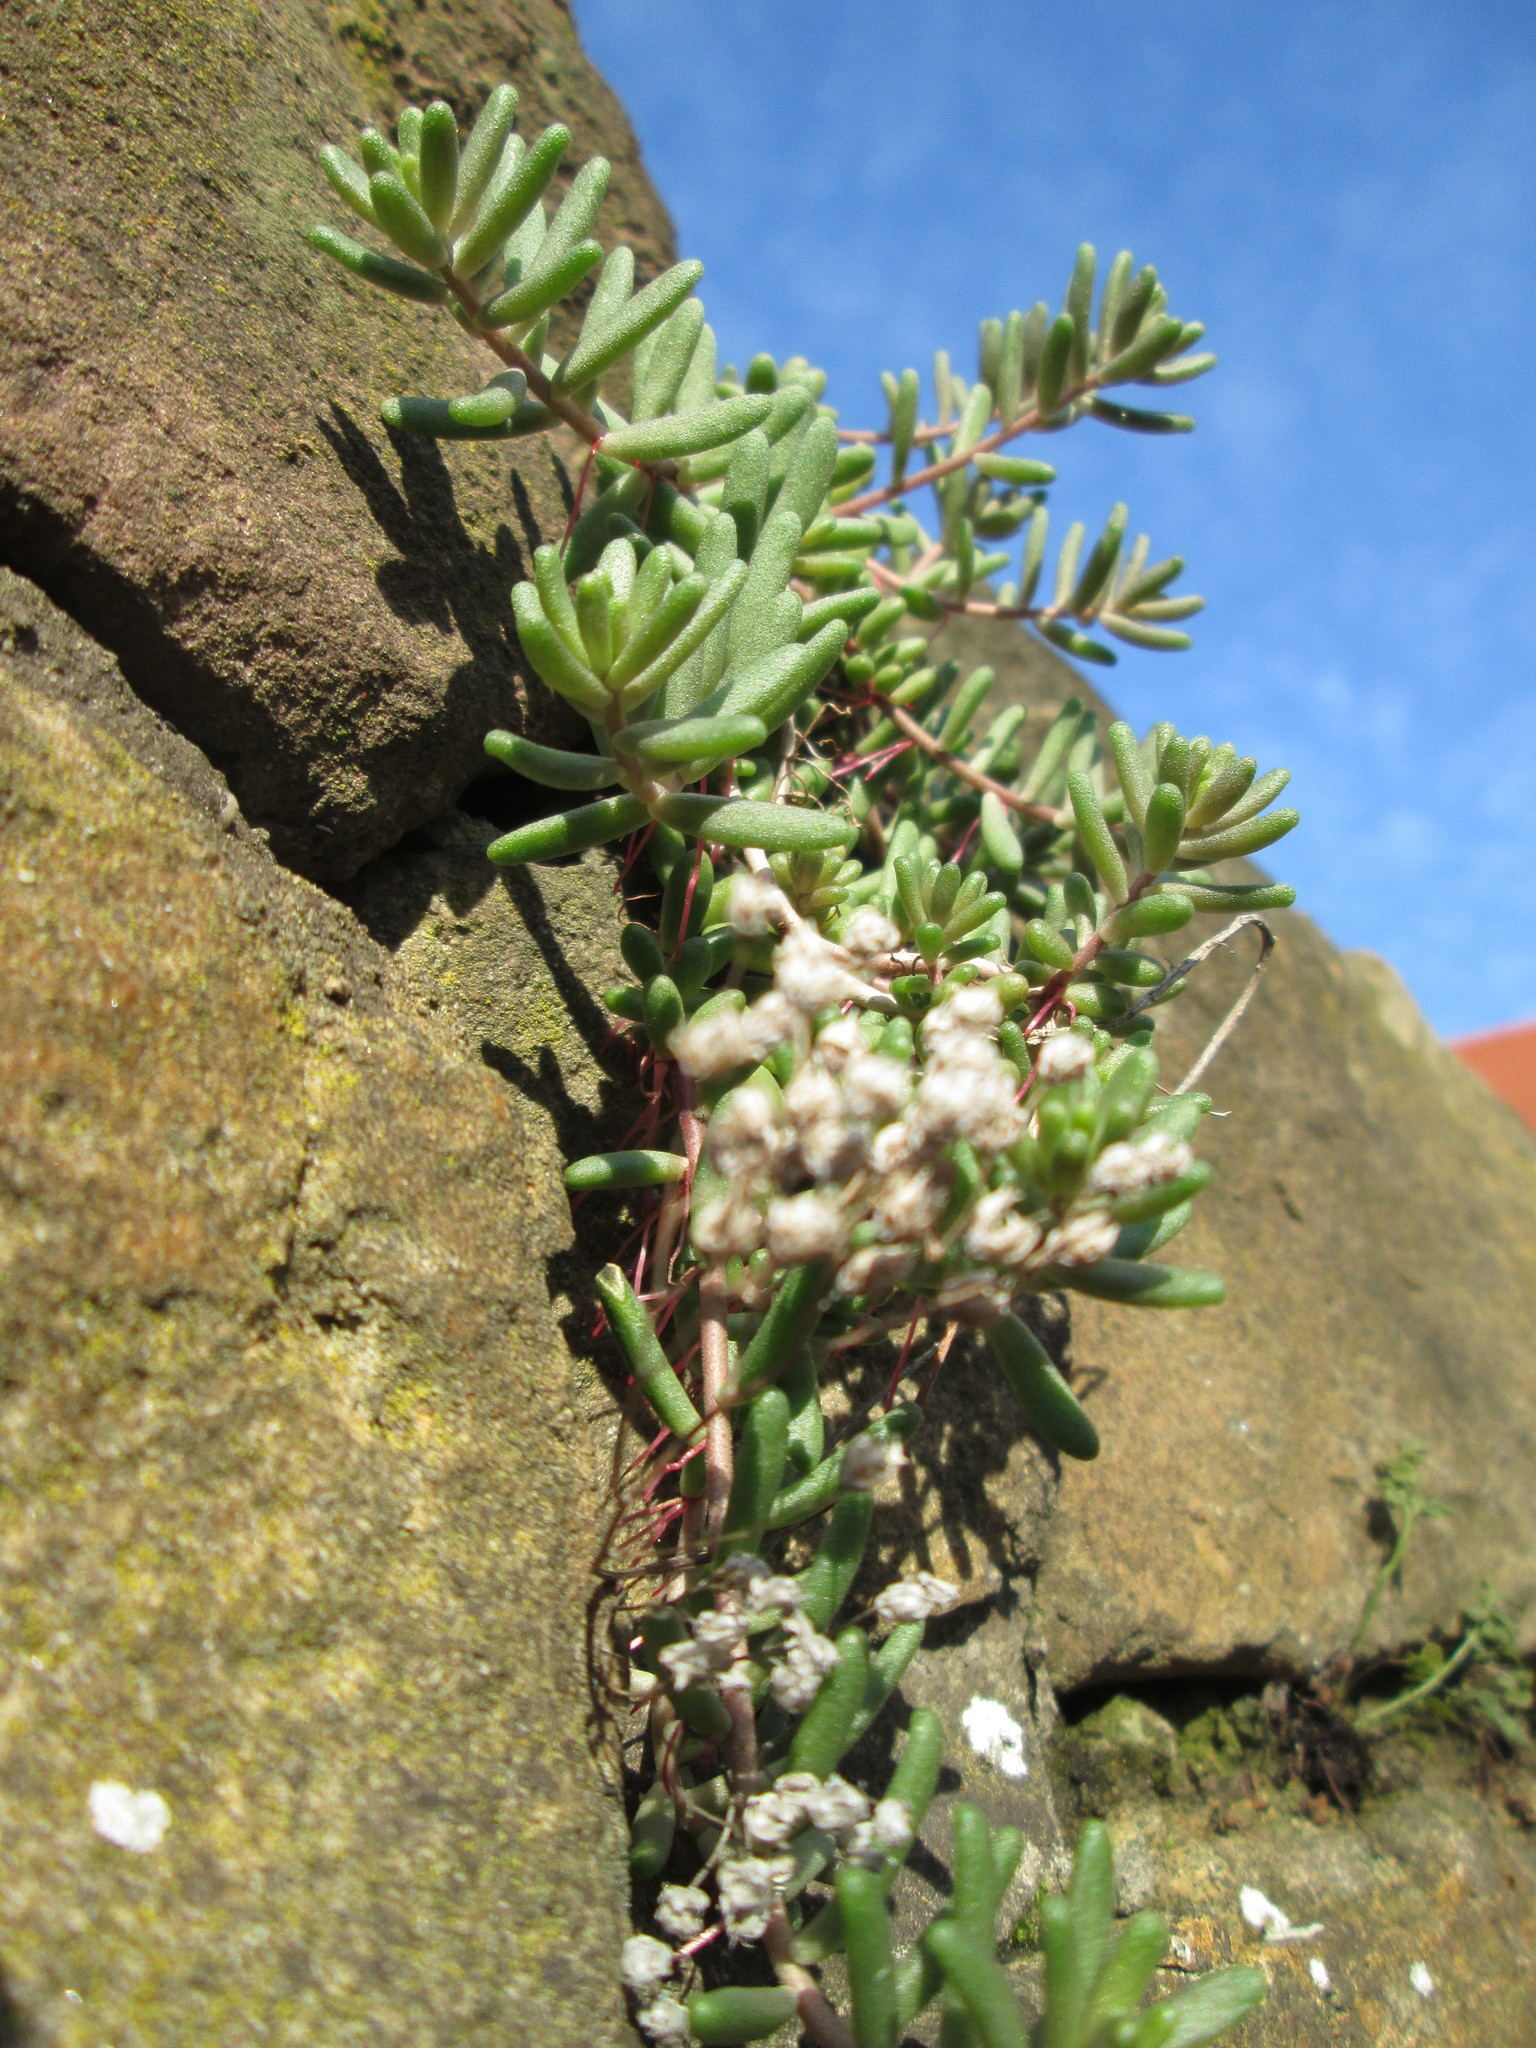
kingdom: Plantae
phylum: Tracheophyta
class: Magnoliopsida
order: Saxifragales
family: Crassulaceae
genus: Sedum
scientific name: Sedum album
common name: White stonecrop
